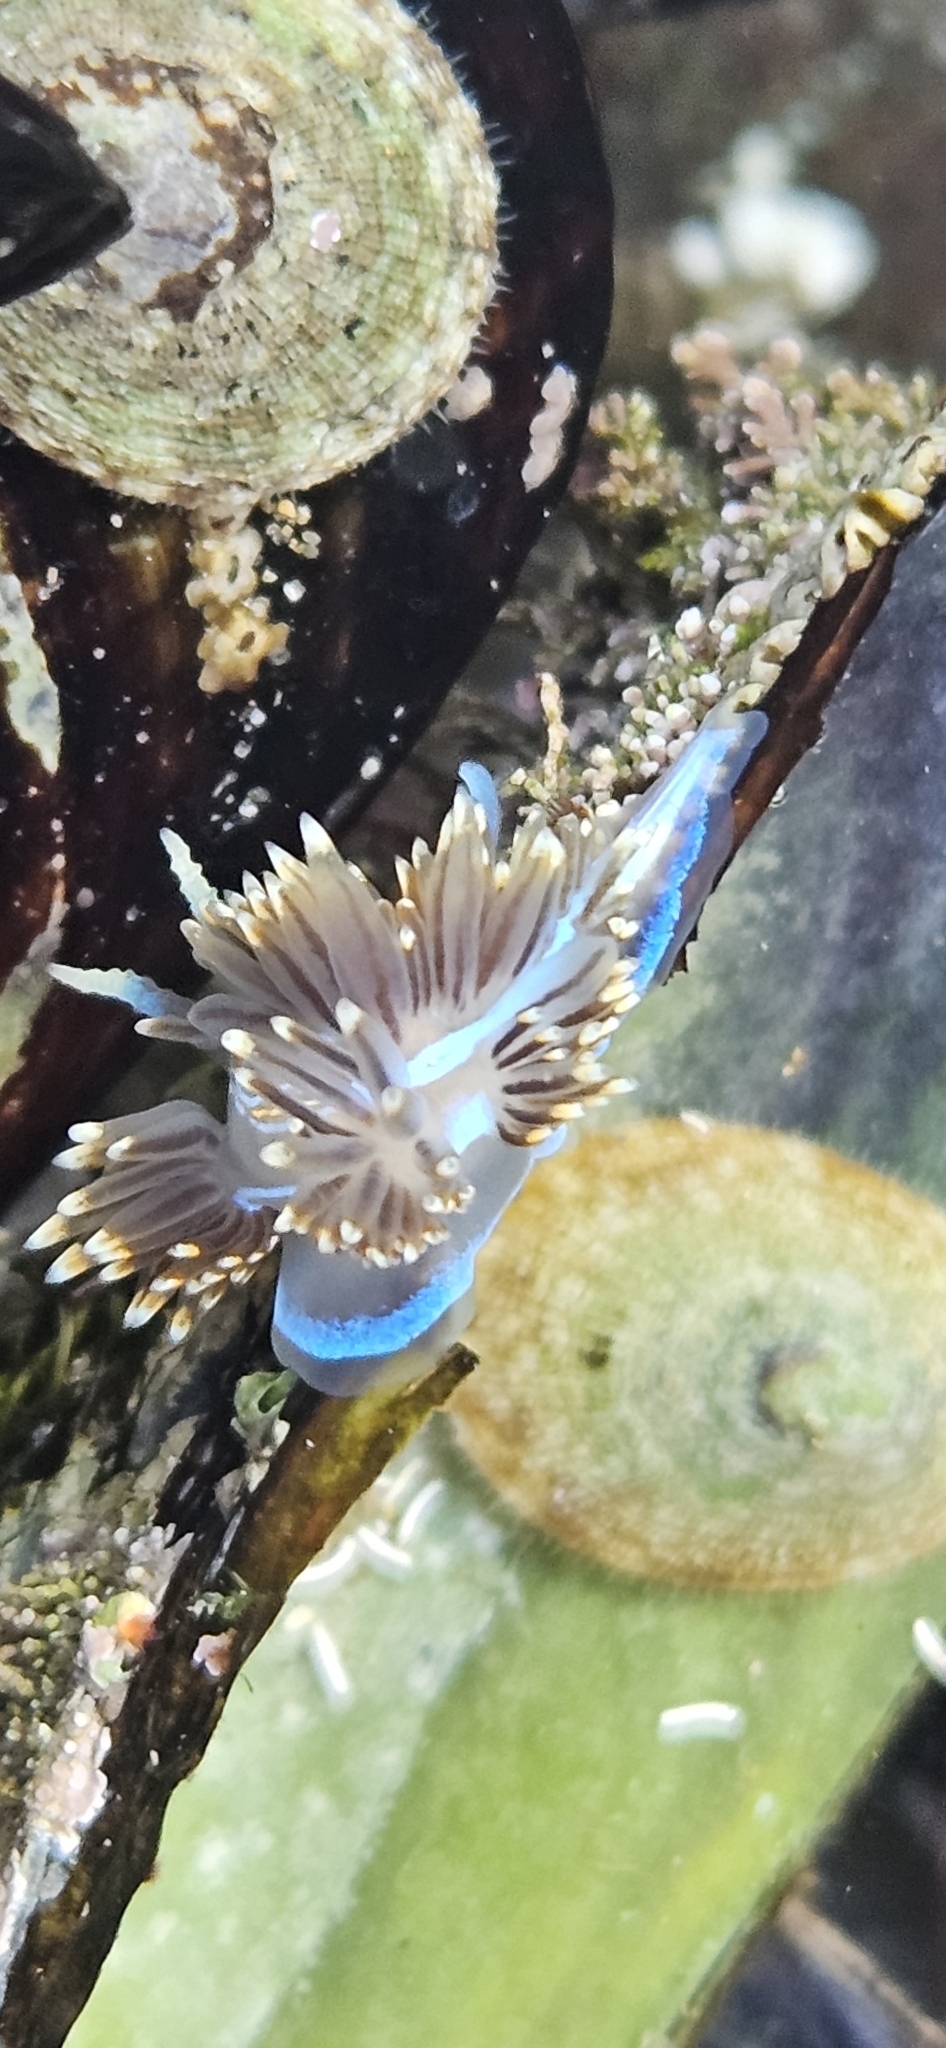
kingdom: Animalia
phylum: Mollusca
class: Gastropoda
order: Nudibranchia
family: Myrrhinidae
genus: Hermissenda
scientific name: Hermissenda opalescens
